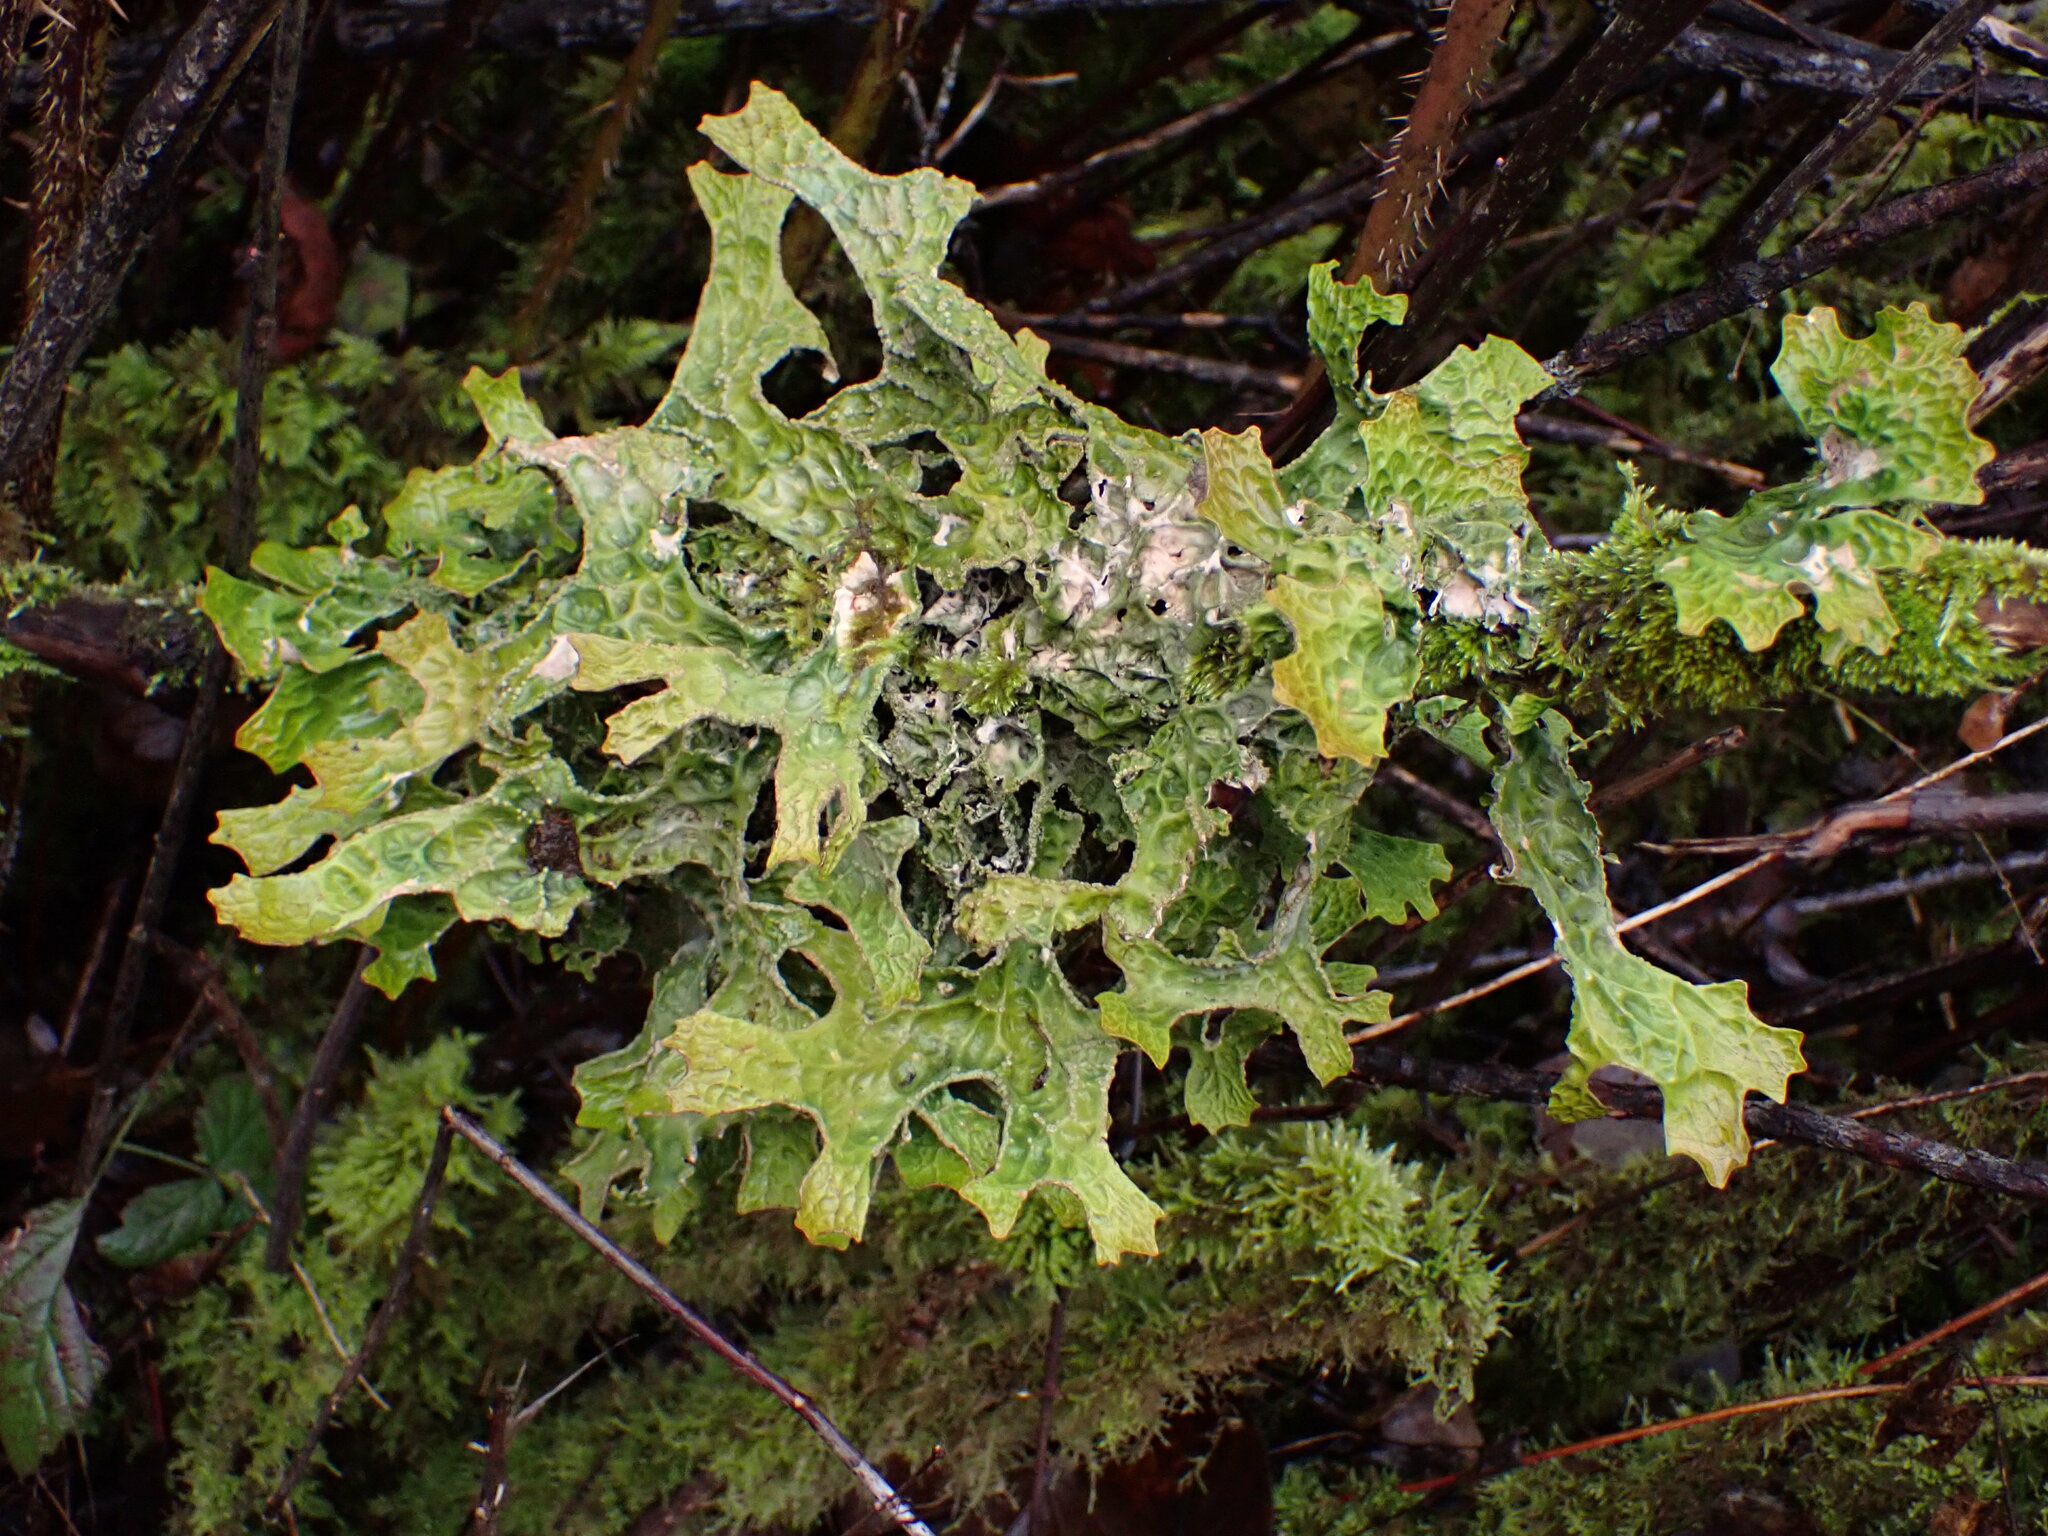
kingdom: Fungi
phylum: Ascomycota
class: Lecanoromycetes
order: Peltigerales
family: Lobariaceae
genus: Lobaria
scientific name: Lobaria pulmonaria
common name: Lungwort
